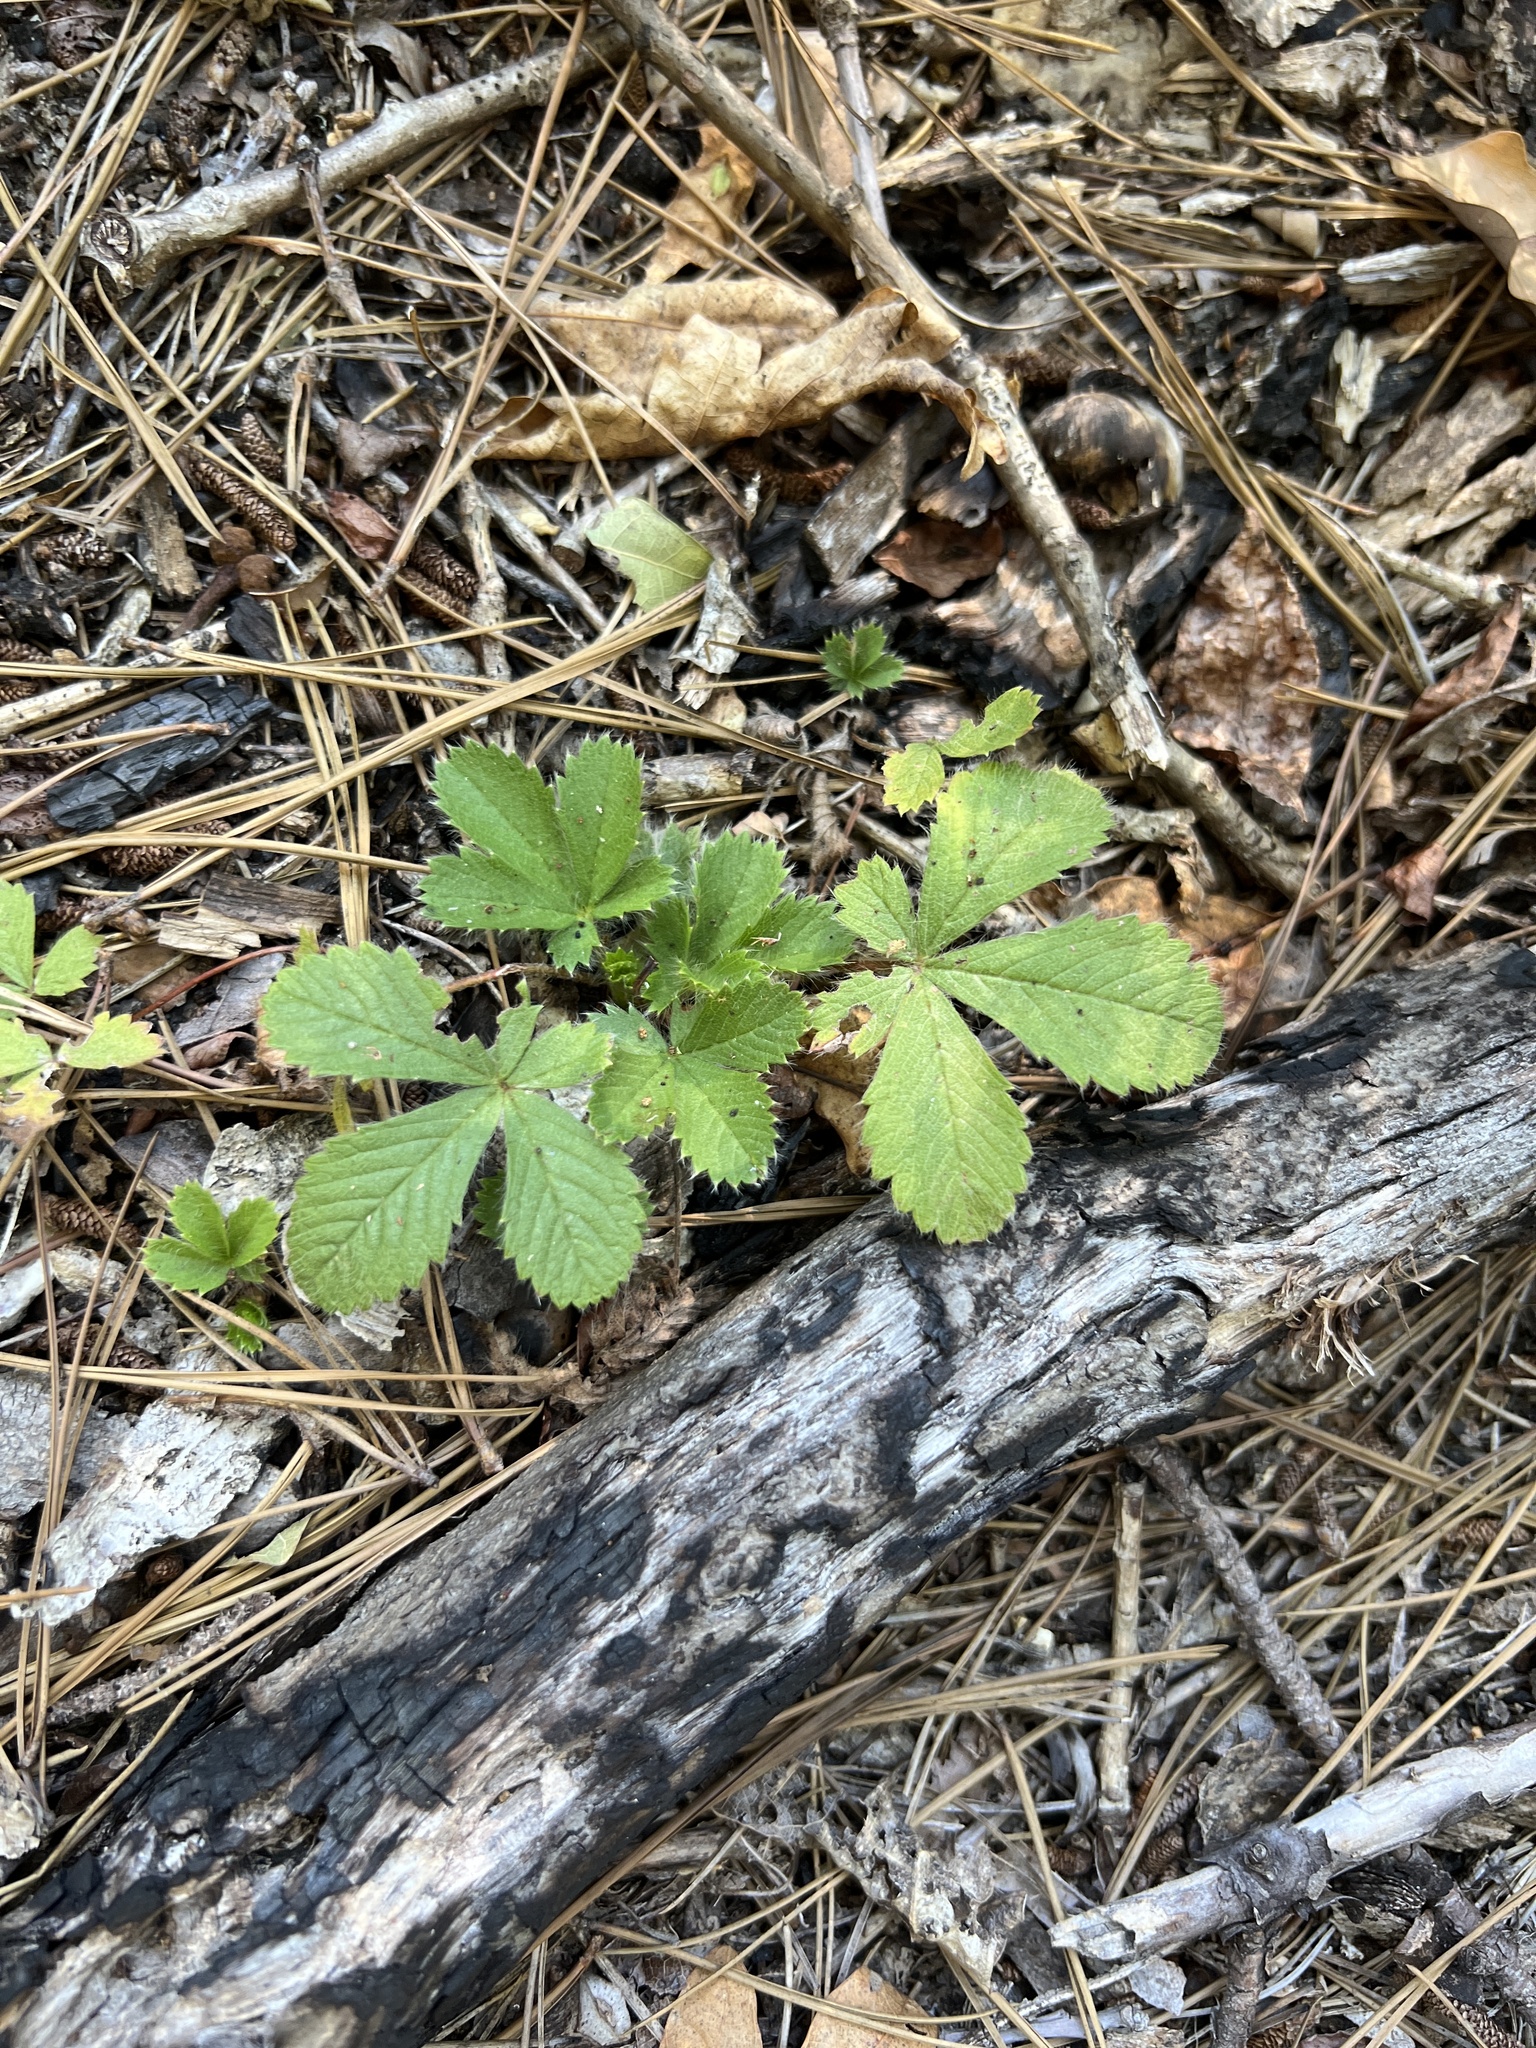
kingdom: Plantae
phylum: Tracheophyta
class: Magnoliopsida
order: Rosales
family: Rosaceae
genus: Potentilla
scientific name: Potentilla canadensis
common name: Canada cinquefoil
